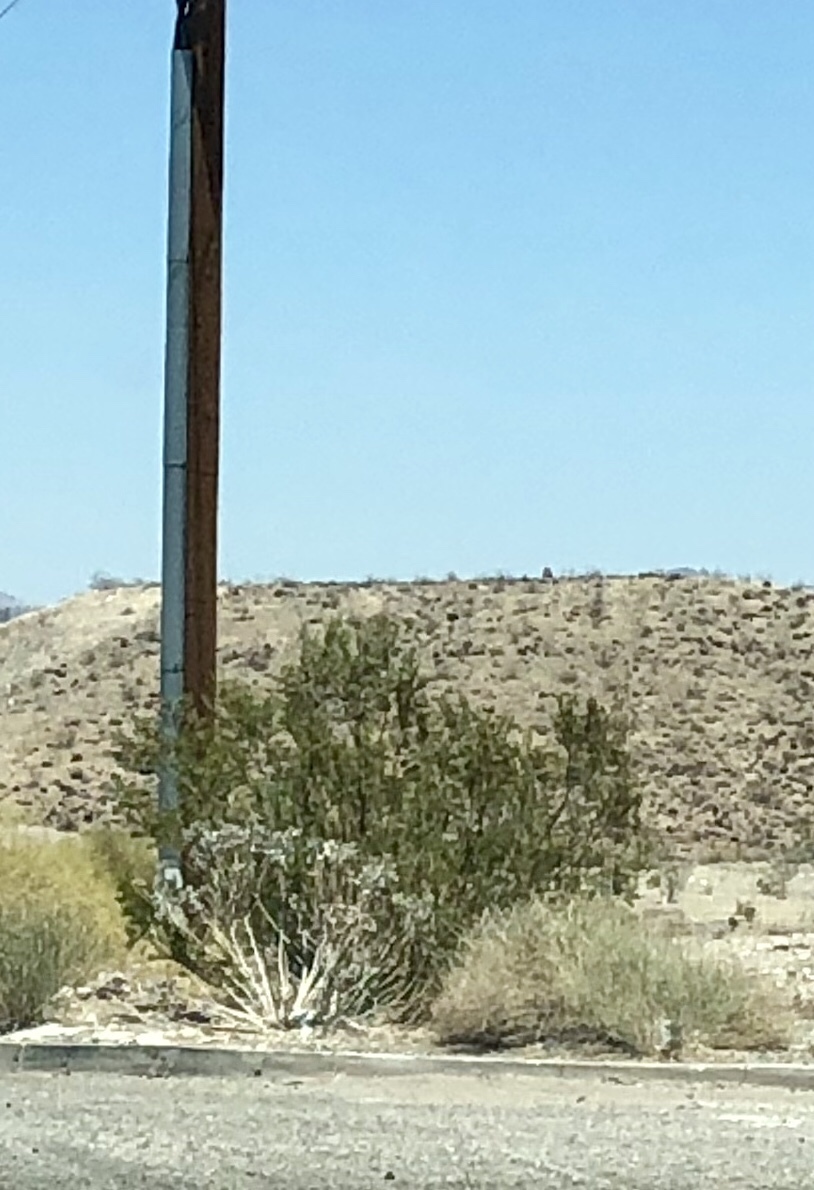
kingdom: Plantae
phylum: Tracheophyta
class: Magnoliopsida
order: Zygophyllales
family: Zygophyllaceae
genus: Larrea
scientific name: Larrea tridentata
